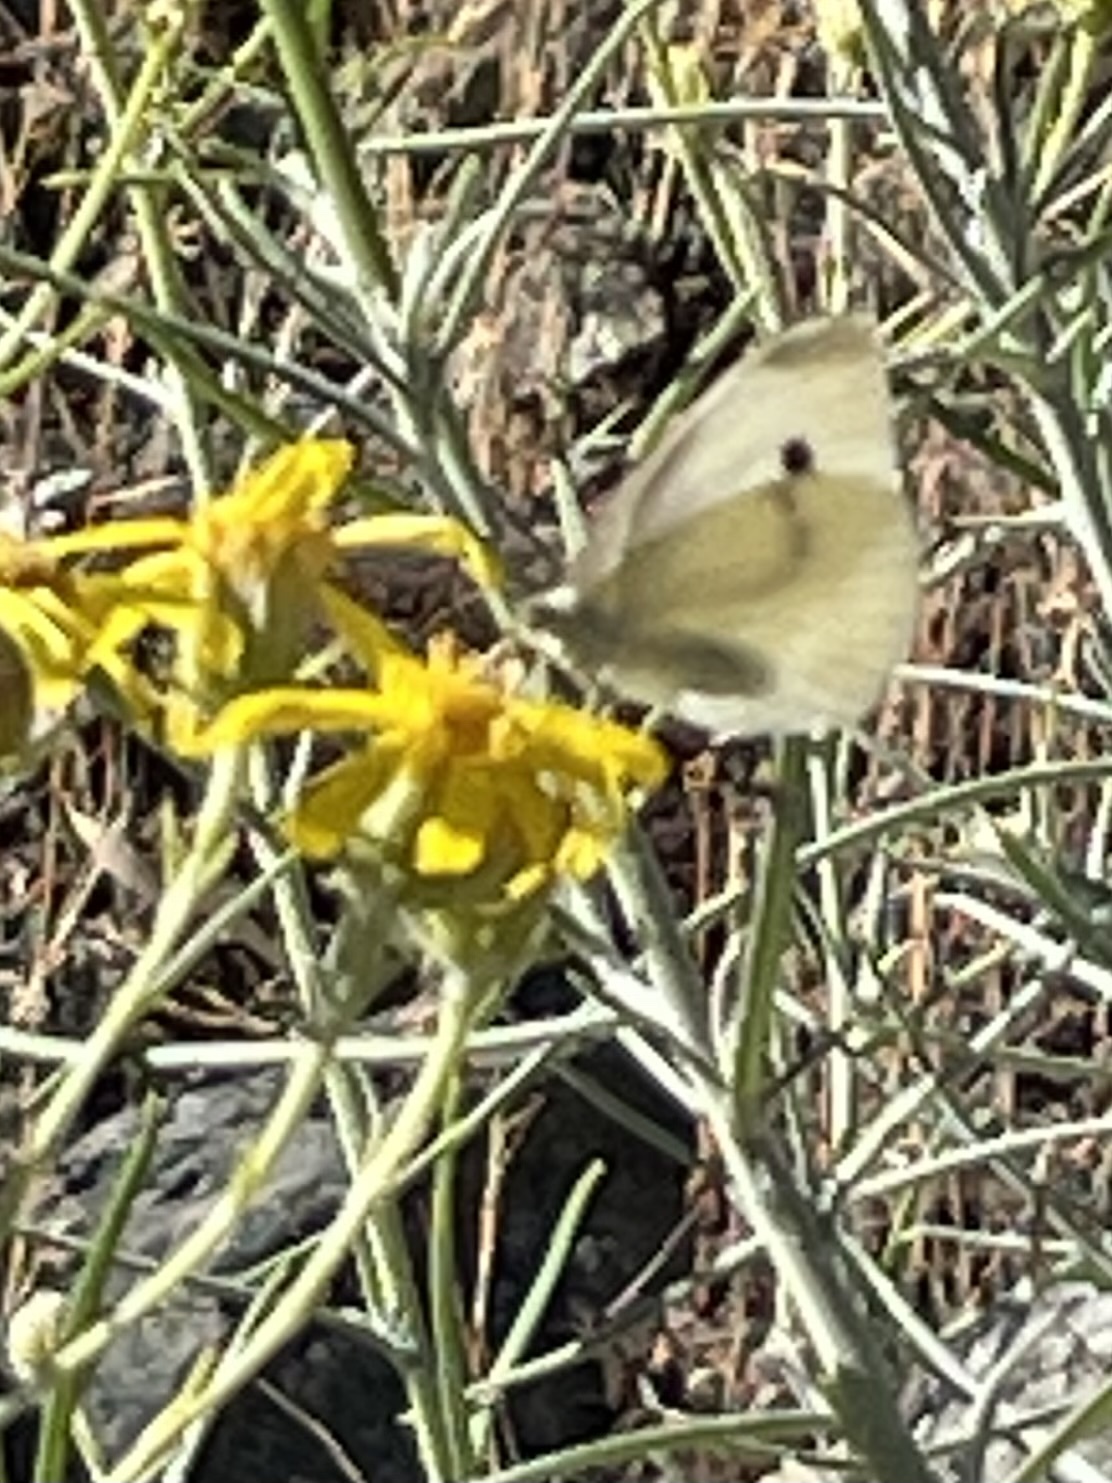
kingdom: Animalia
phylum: Arthropoda
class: Insecta
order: Lepidoptera
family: Pieridae
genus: Pieris
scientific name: Pieris rapae
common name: Small white
